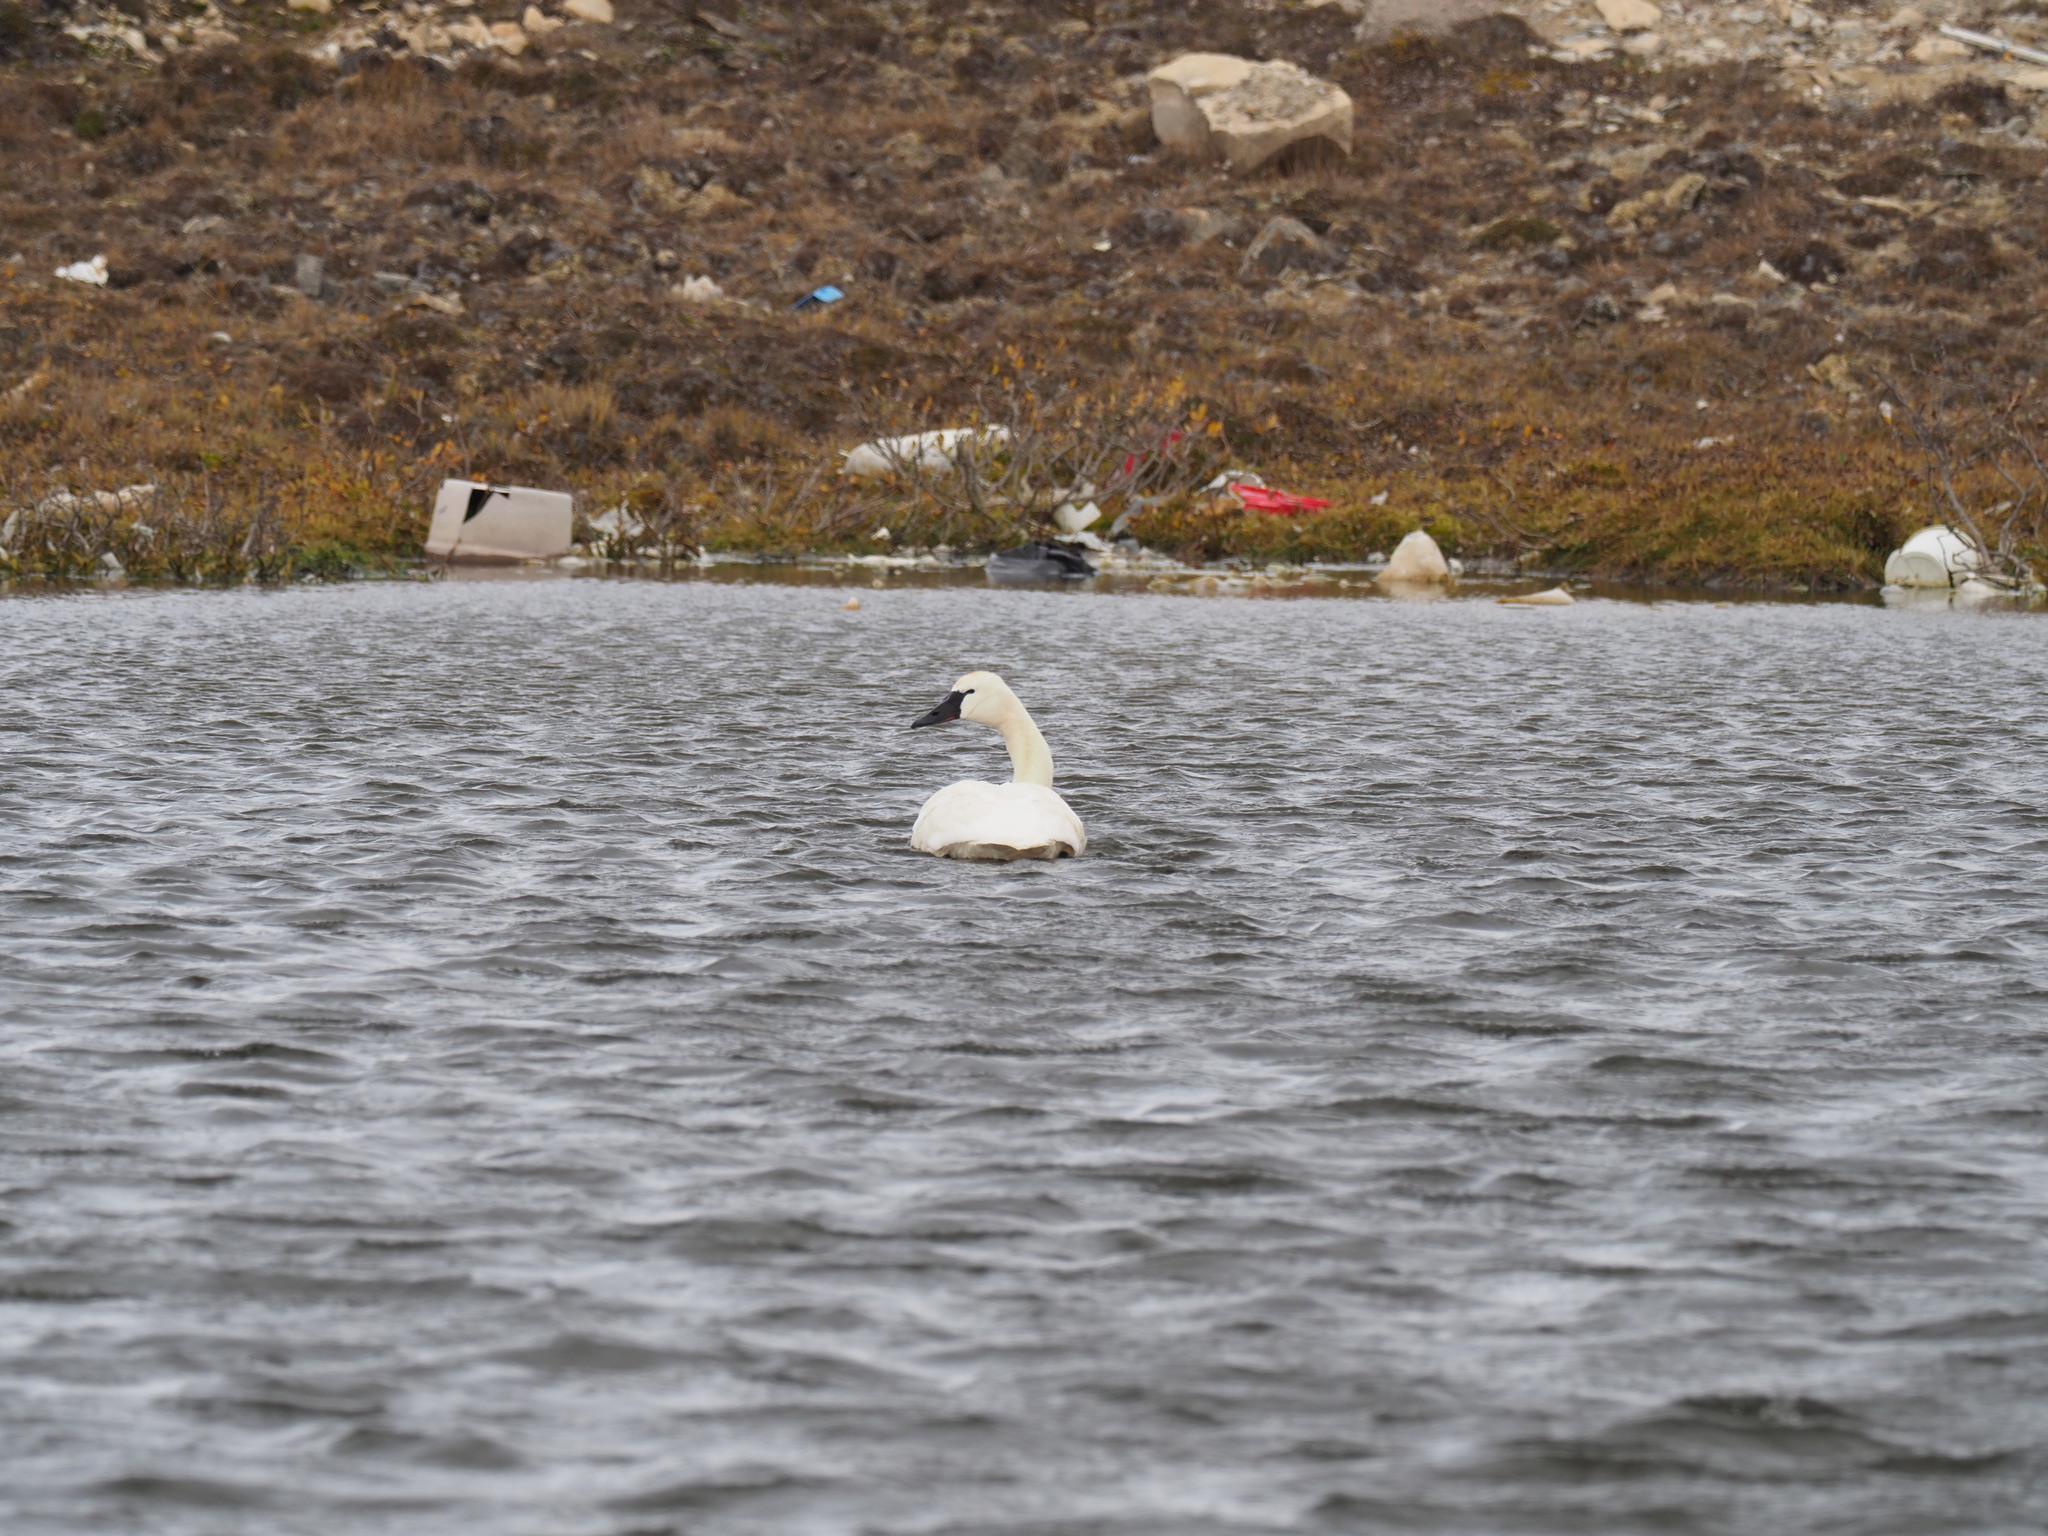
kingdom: Animalia
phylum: Chordata
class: Aves
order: Anseriformes
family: Anatidae
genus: Cygnus
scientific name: Cygnus columbianus
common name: Tundra swan
